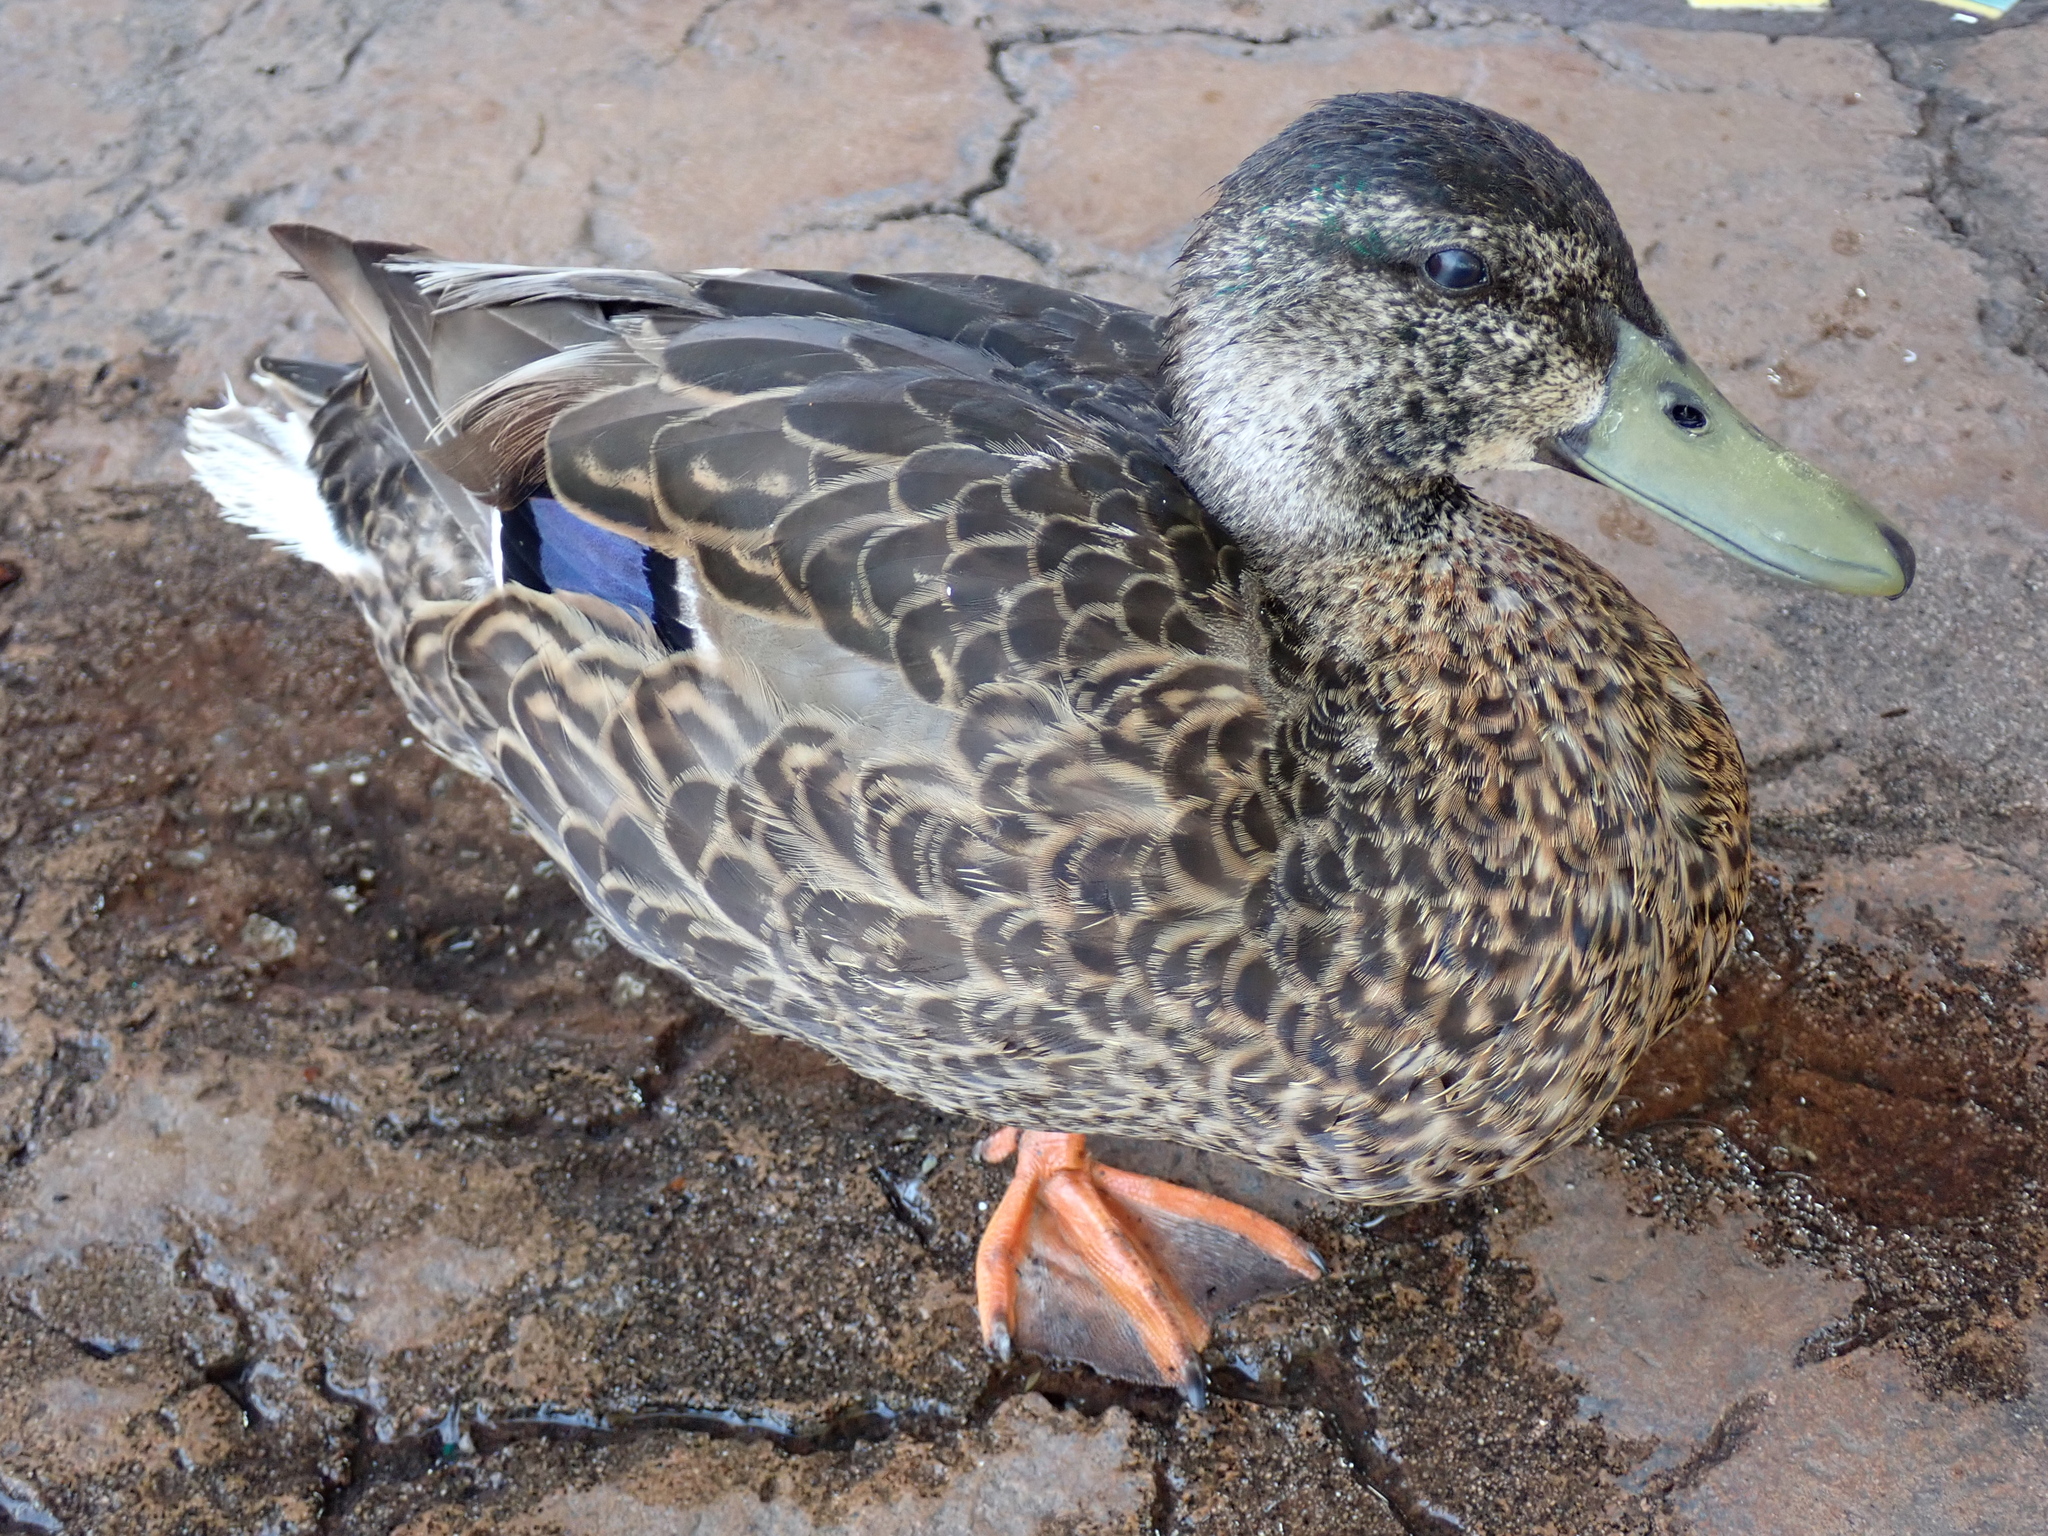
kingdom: Animalia
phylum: Chordata
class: Aves
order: Anseriformes
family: Anatidae
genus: Anas
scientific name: Anas platyrhynchos
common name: Mallard
